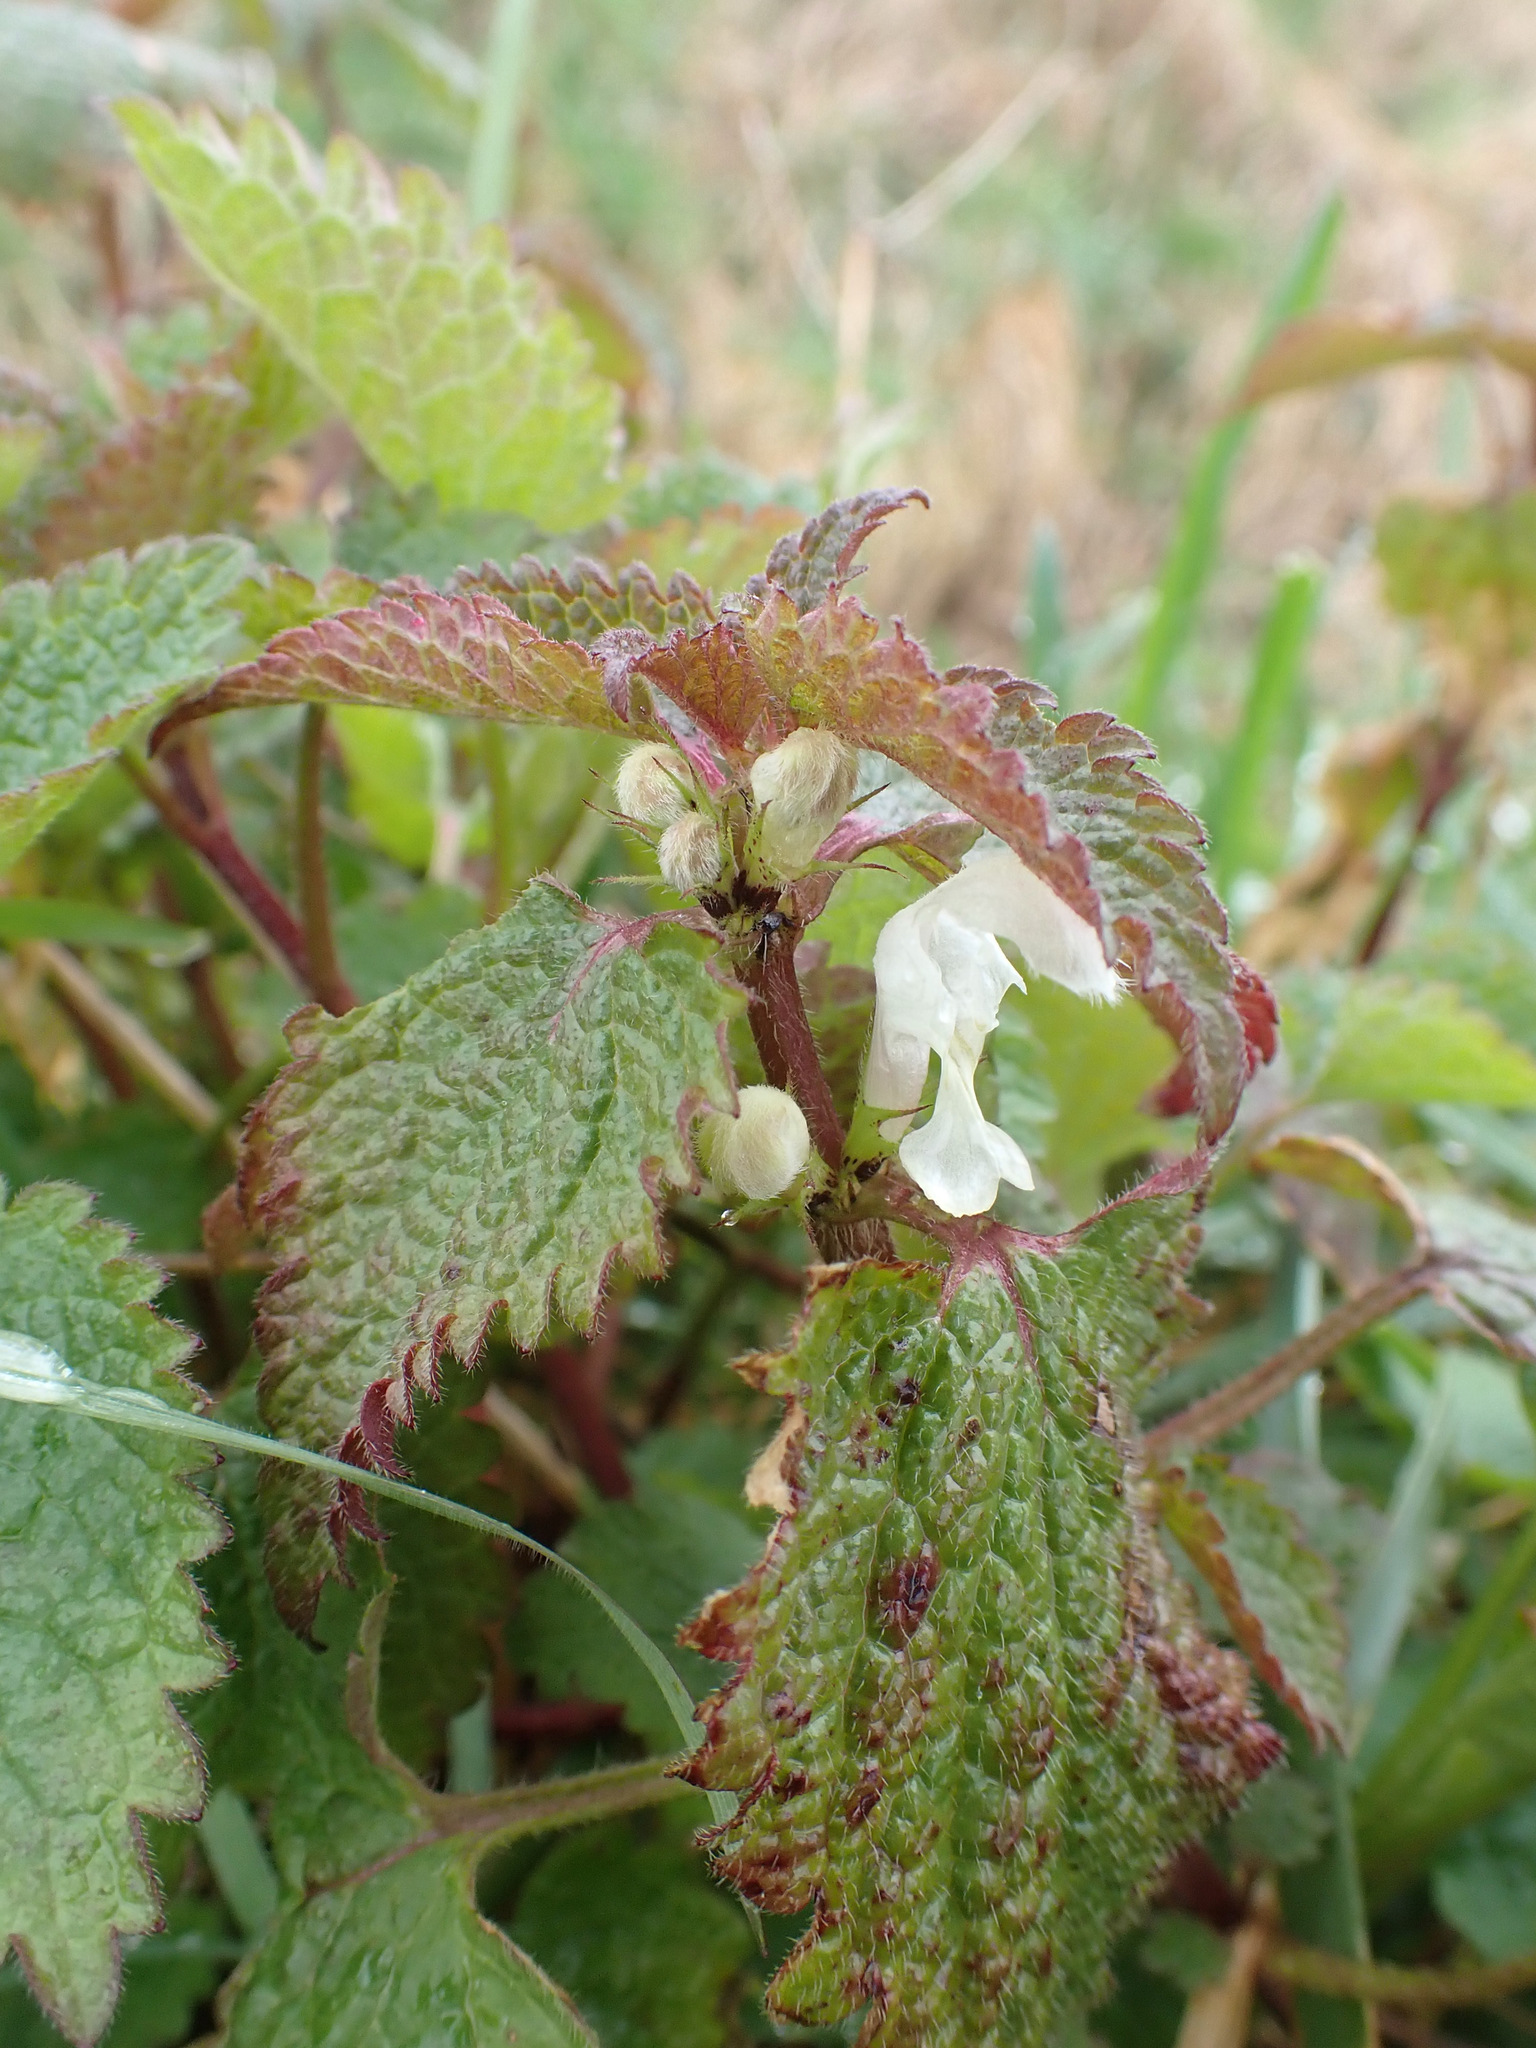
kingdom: Plantae
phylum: Tracheophyta
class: Magnoliopsida
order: Lamiales
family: Lamiaceae
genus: Lamium
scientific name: Lamium album
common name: White dead-nettle
